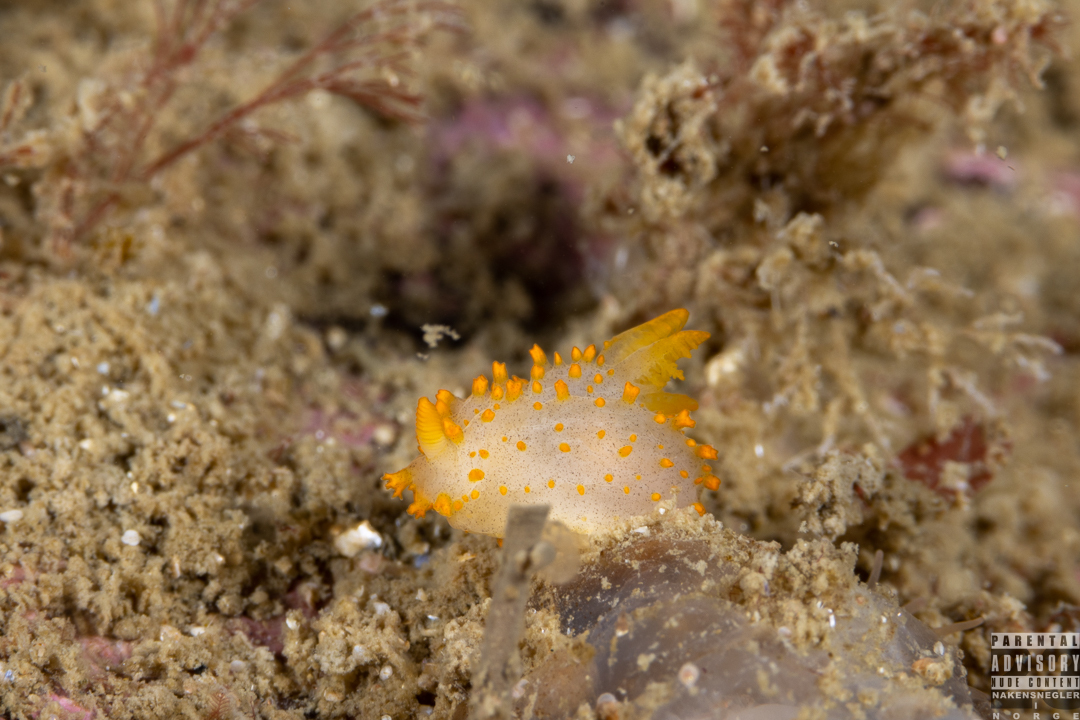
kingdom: Animalia
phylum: Mollusca
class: Gastropoda
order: Nudibranchia
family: Polyceridae
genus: Crimora
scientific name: Crimora papillata
